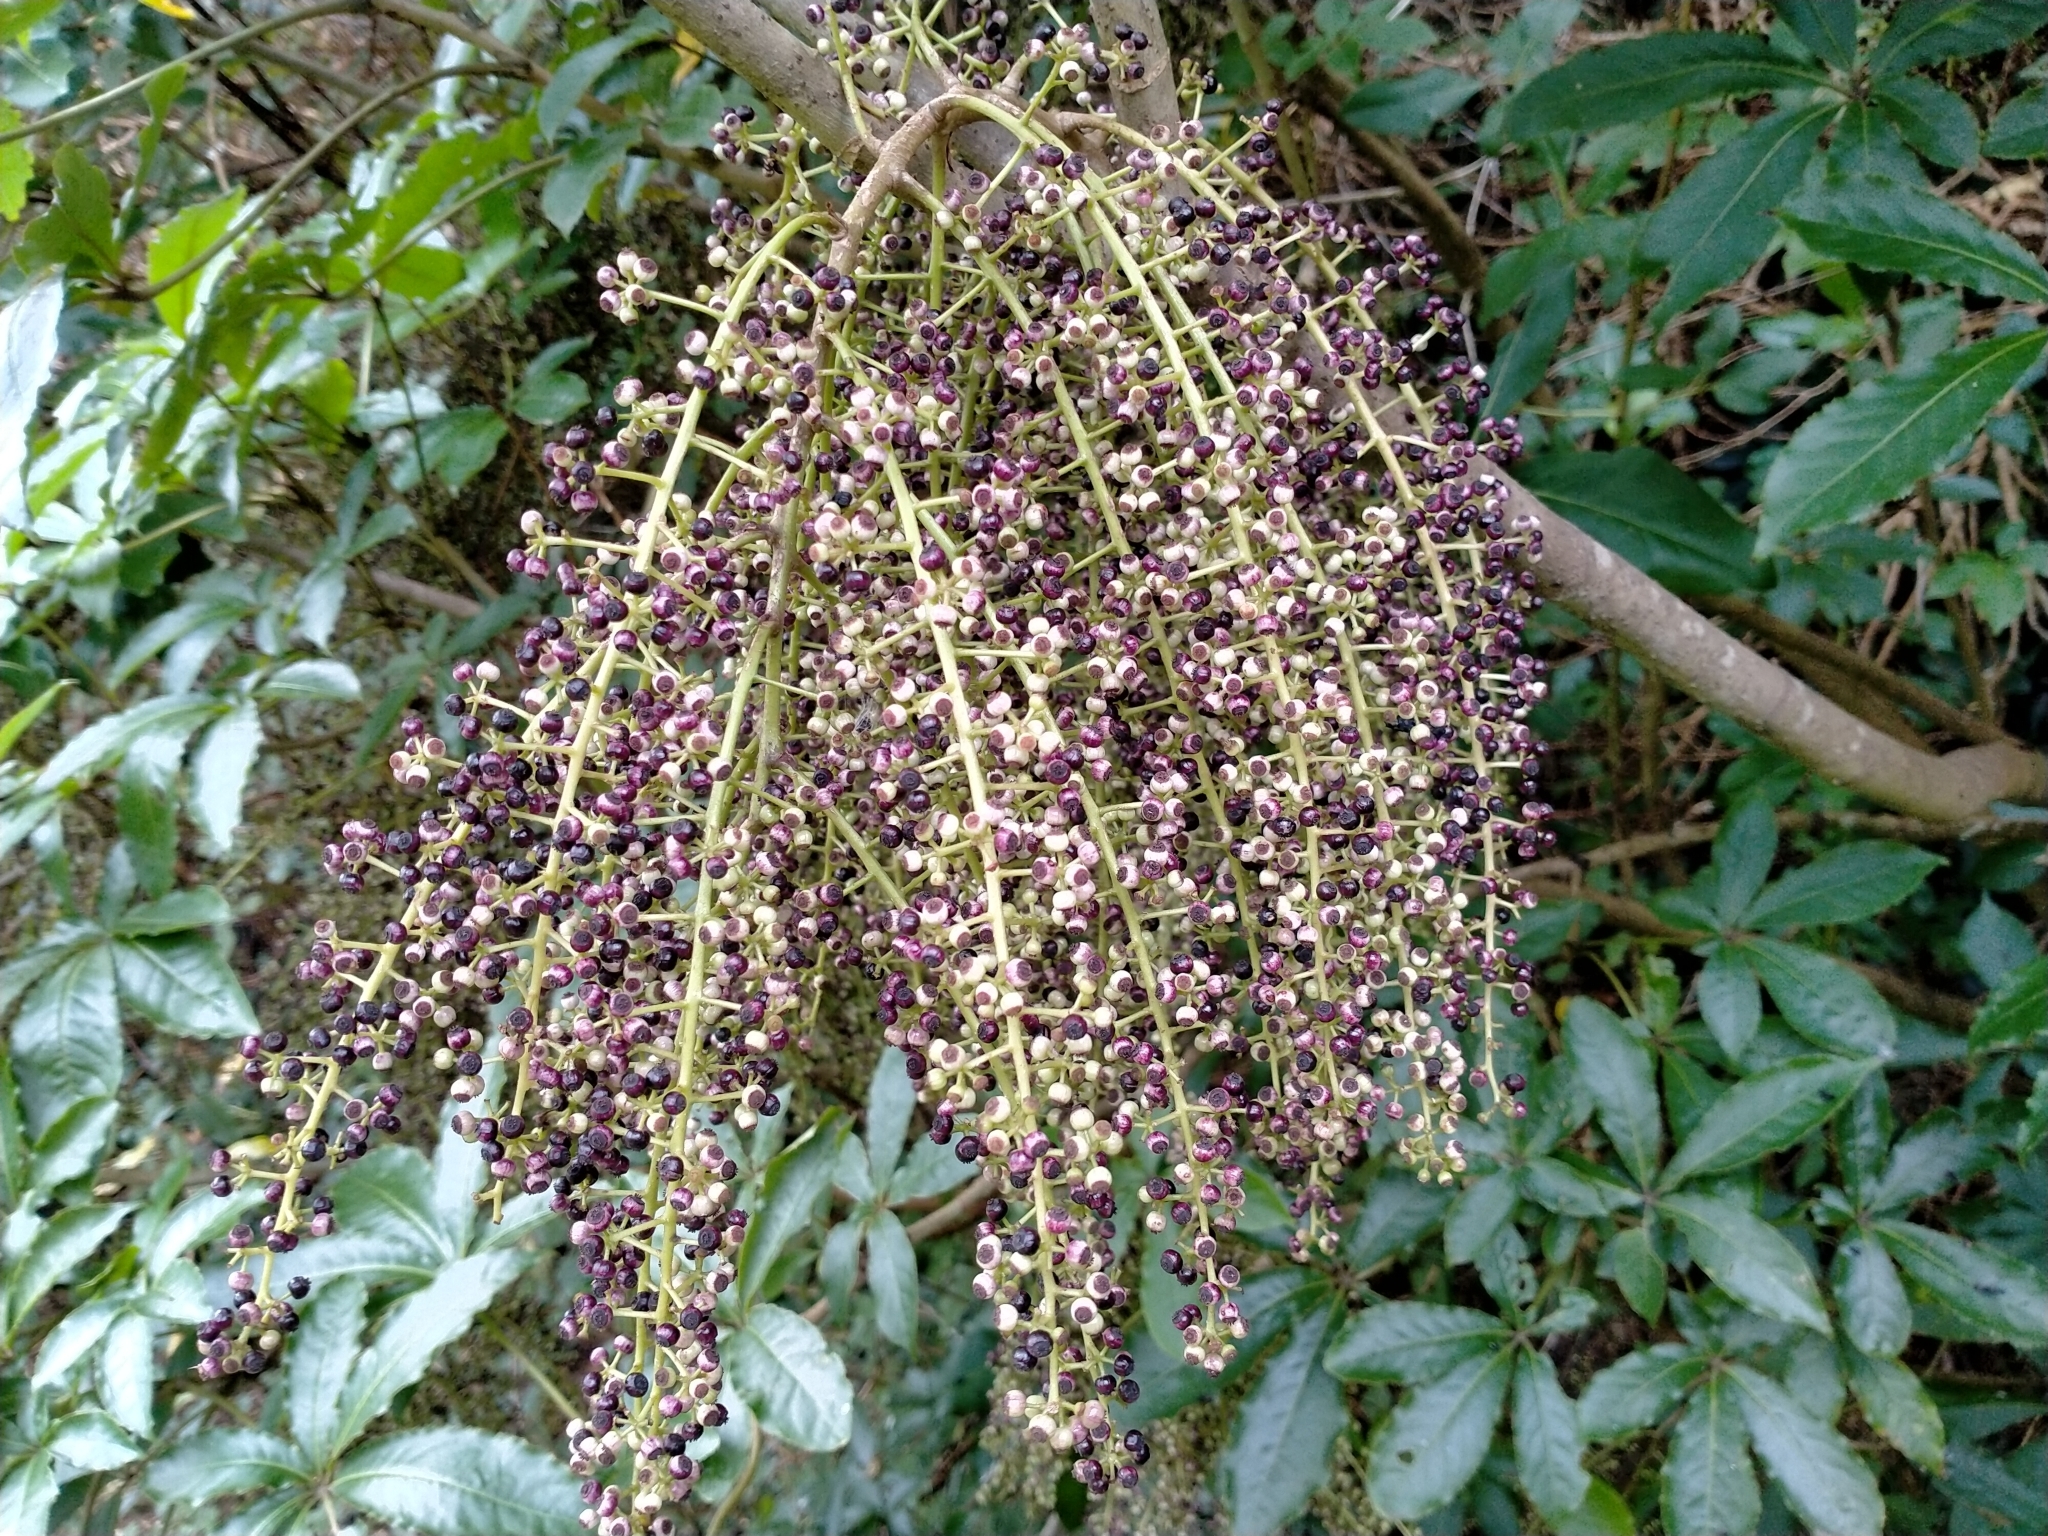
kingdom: Plantae
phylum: Tracheophyta
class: Magnoliopsida
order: Apiales
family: Araliaceae
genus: Schefflera
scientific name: Schefflera digitata
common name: Pate
